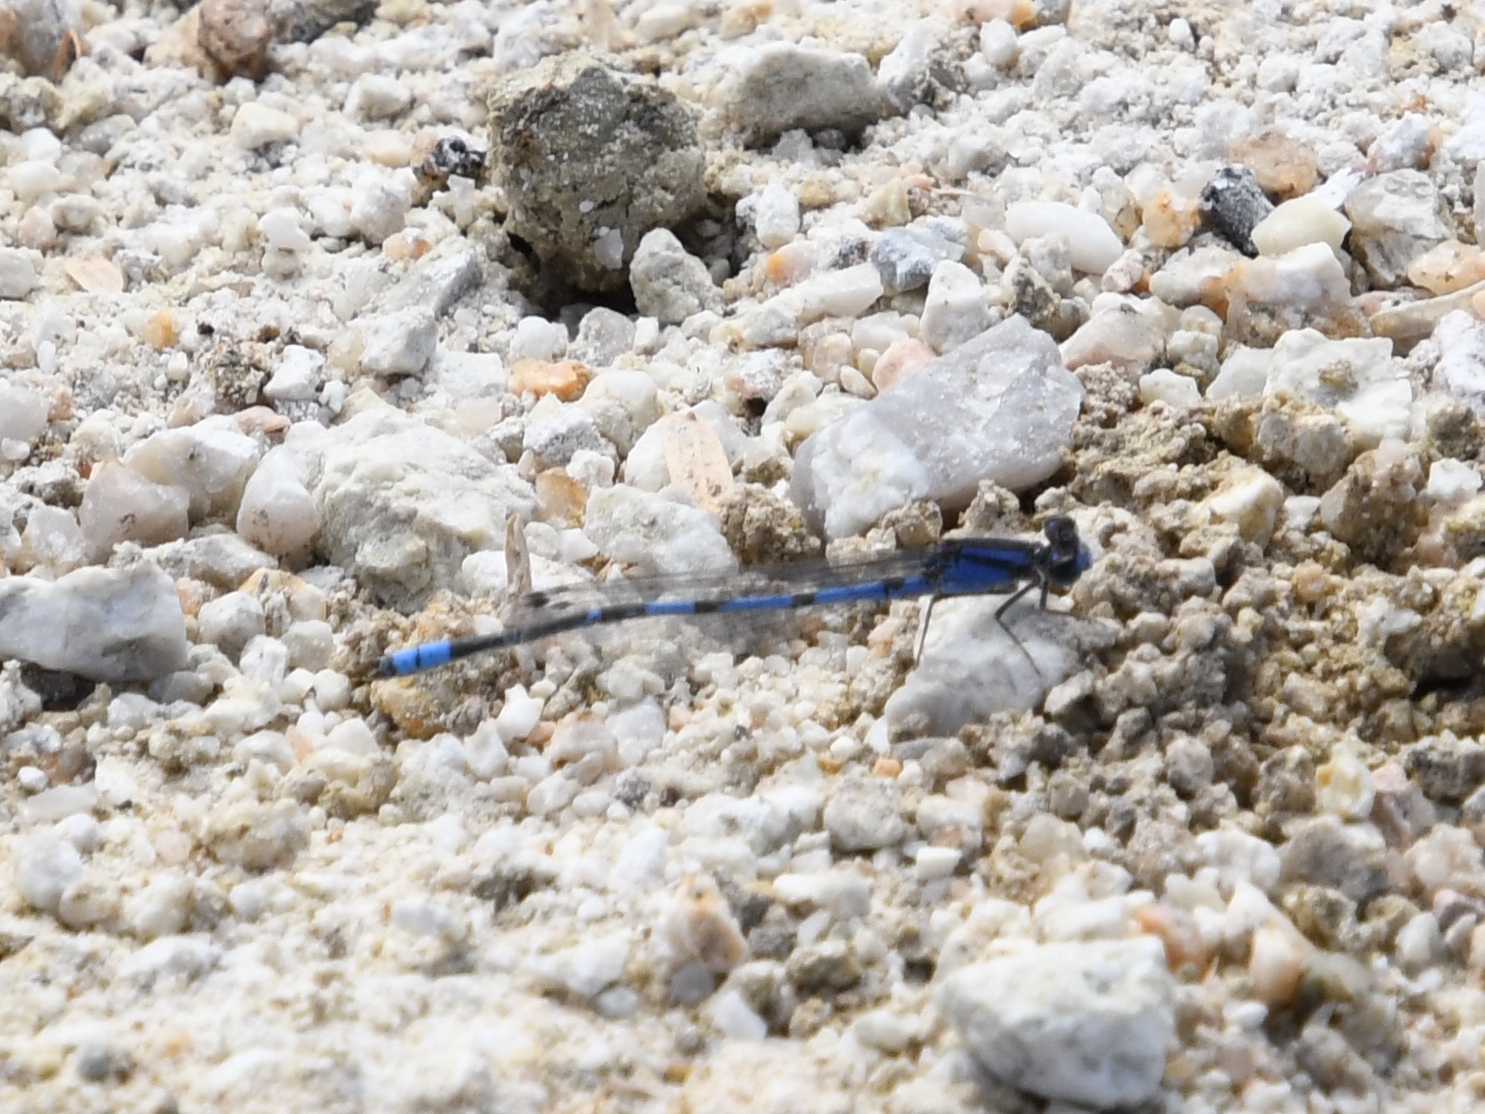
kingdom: Animalia
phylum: Arthropoda
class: Insecta
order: Odonata
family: Coenagrionidae
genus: Enallagma
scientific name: Enallagma civile
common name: Damselfly
